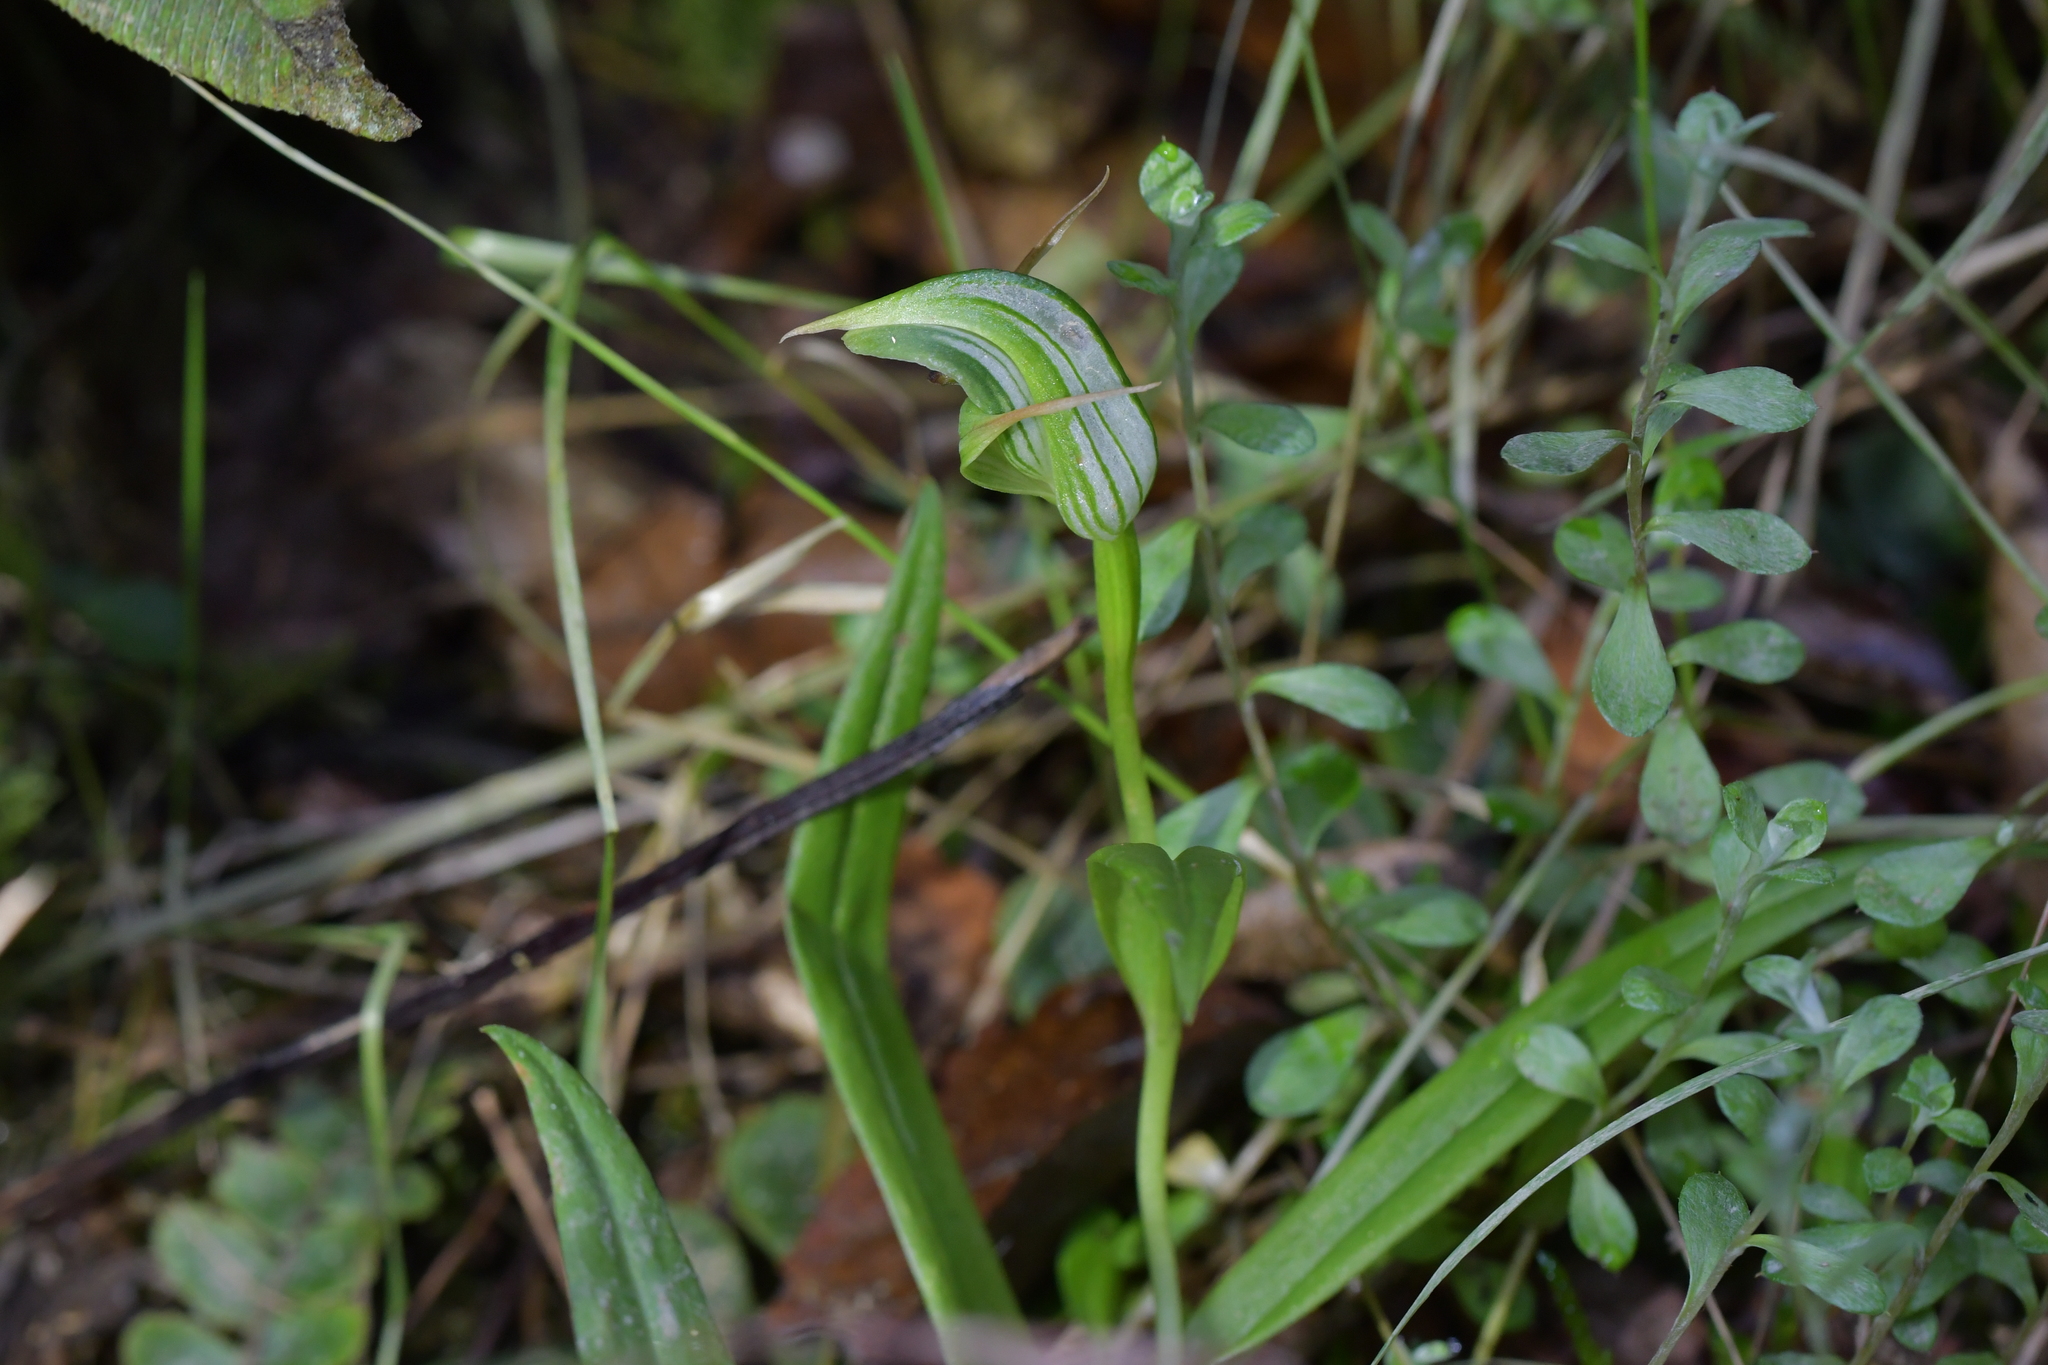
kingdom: Plantae
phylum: Tracheophyta
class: Liliopsida
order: Asparagales
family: Orchidaceae
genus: Pterostylis
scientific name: Pterostylis auriculata
